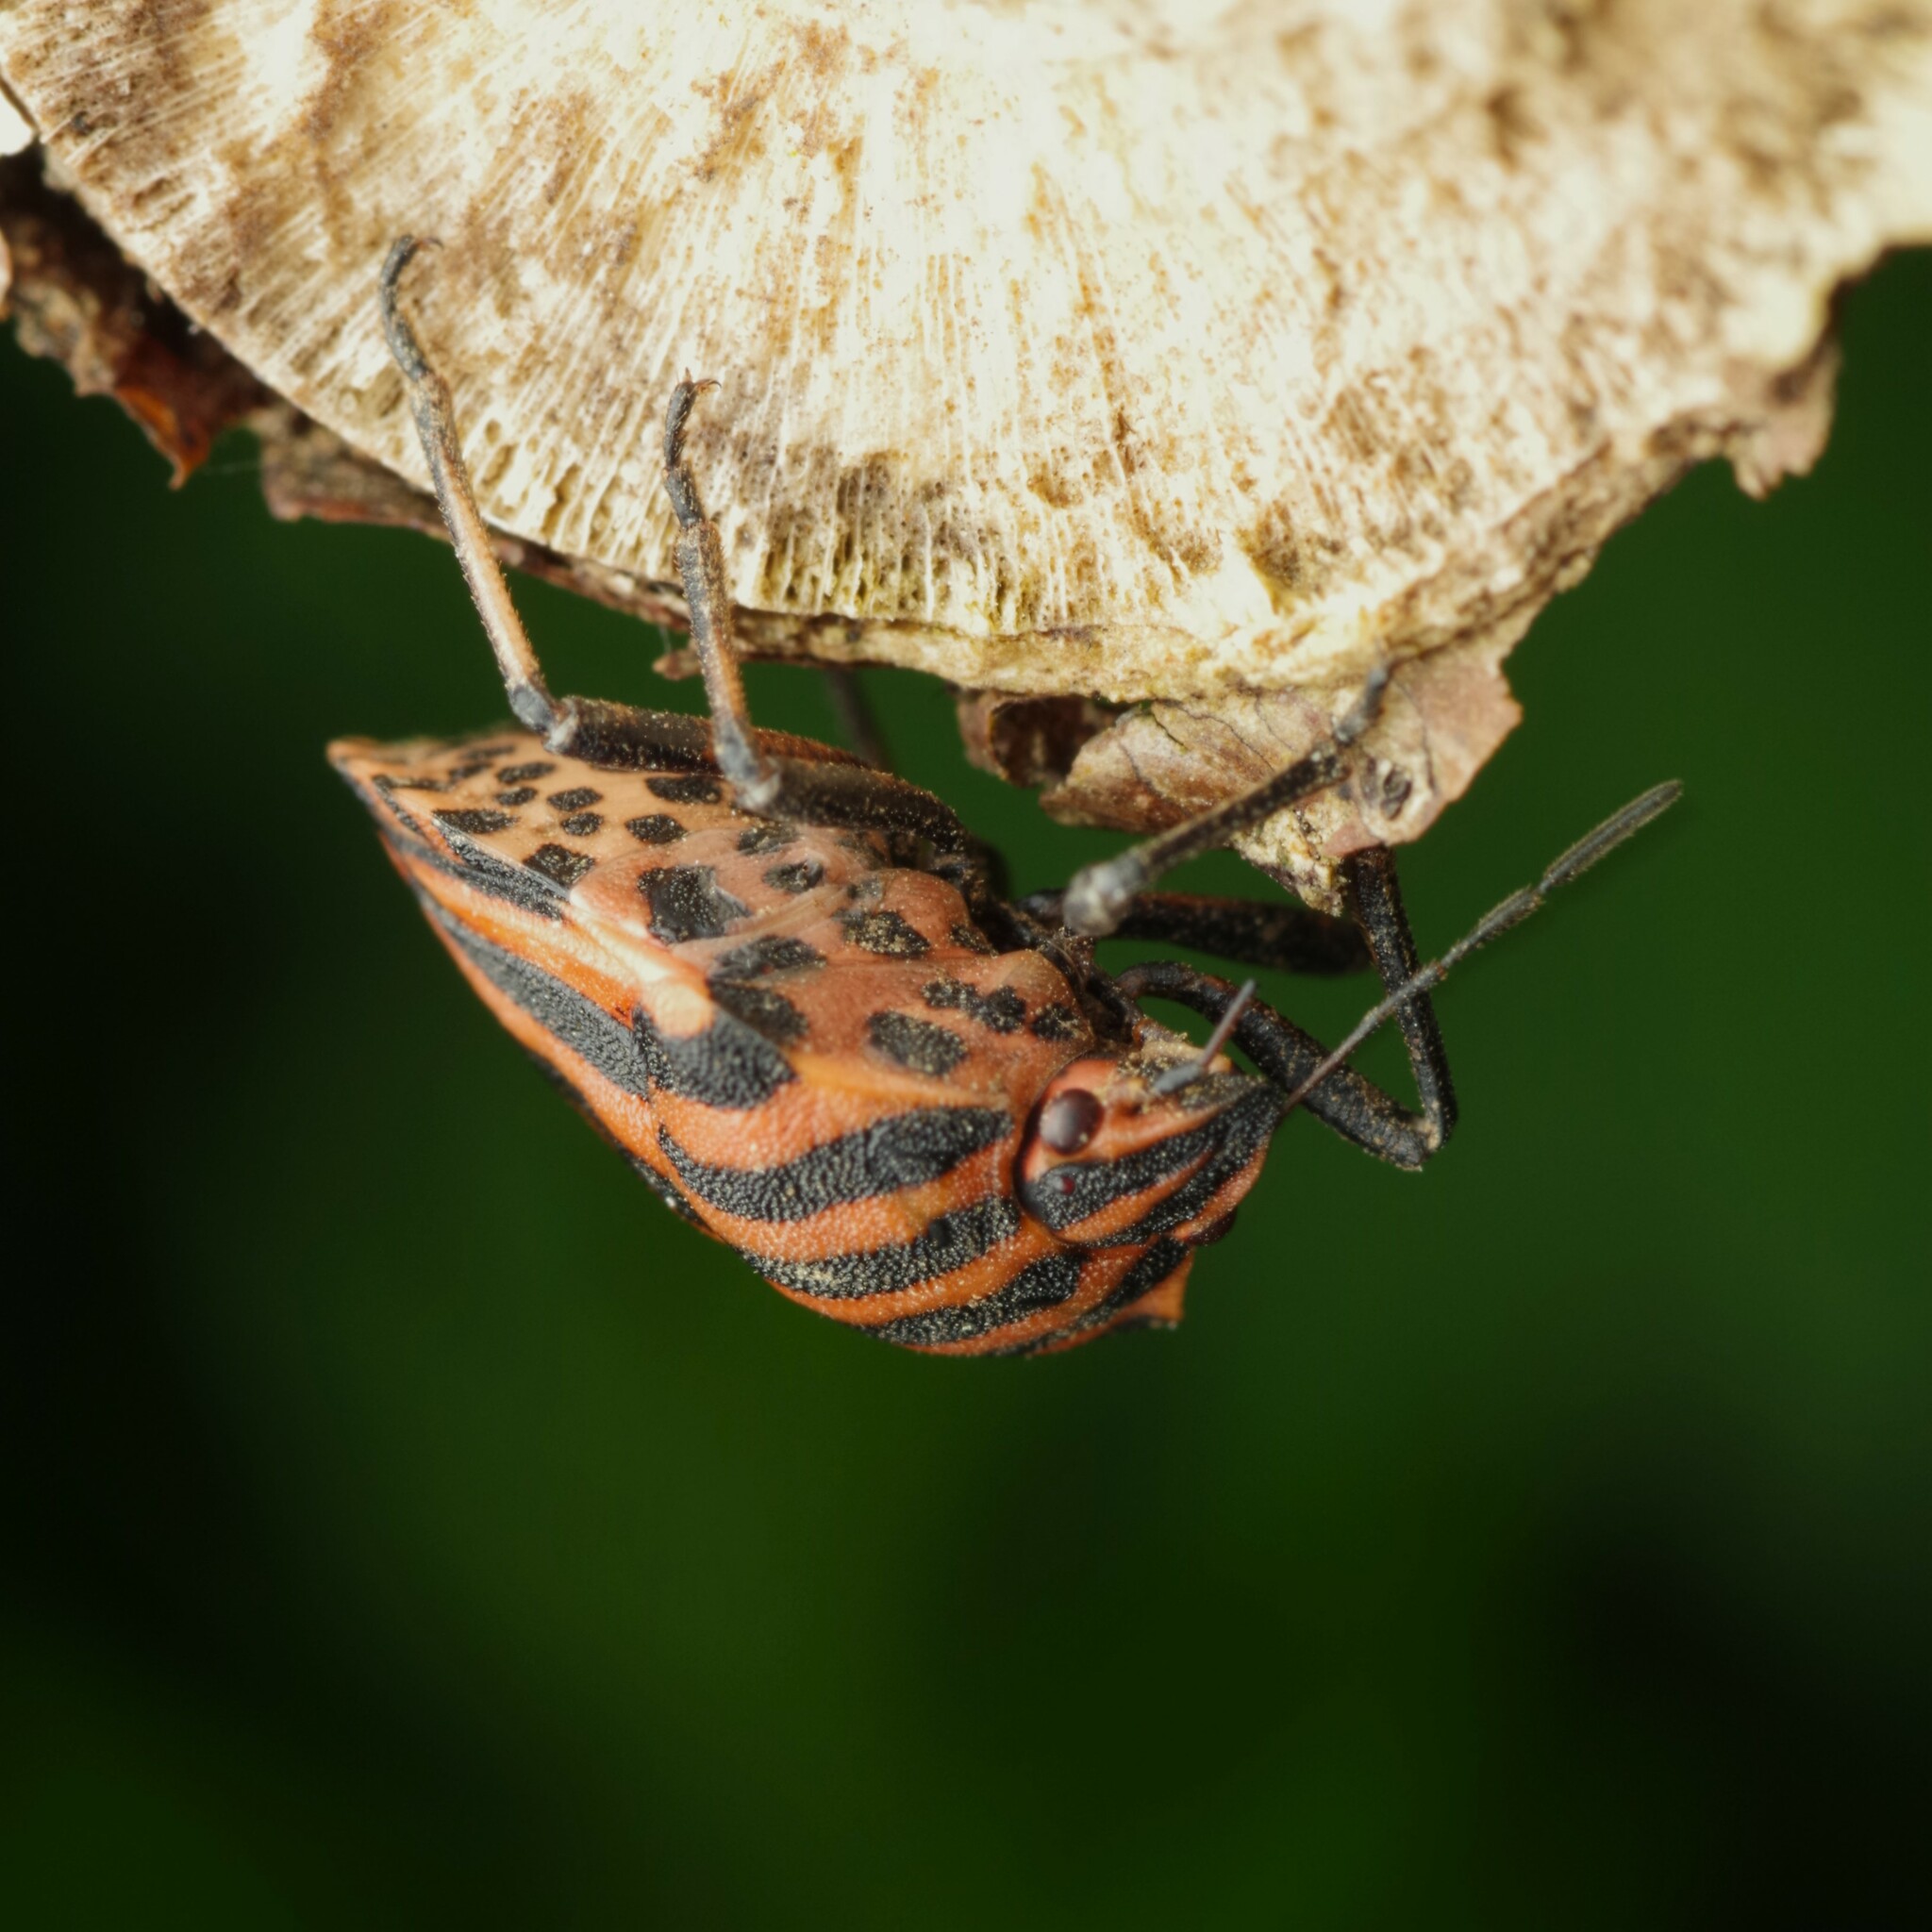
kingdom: Animalia
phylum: Arthropoda
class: Insecta
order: Hemiptera
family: Pentatomidae
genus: Graphosoma
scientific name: Graphosoma italicum
